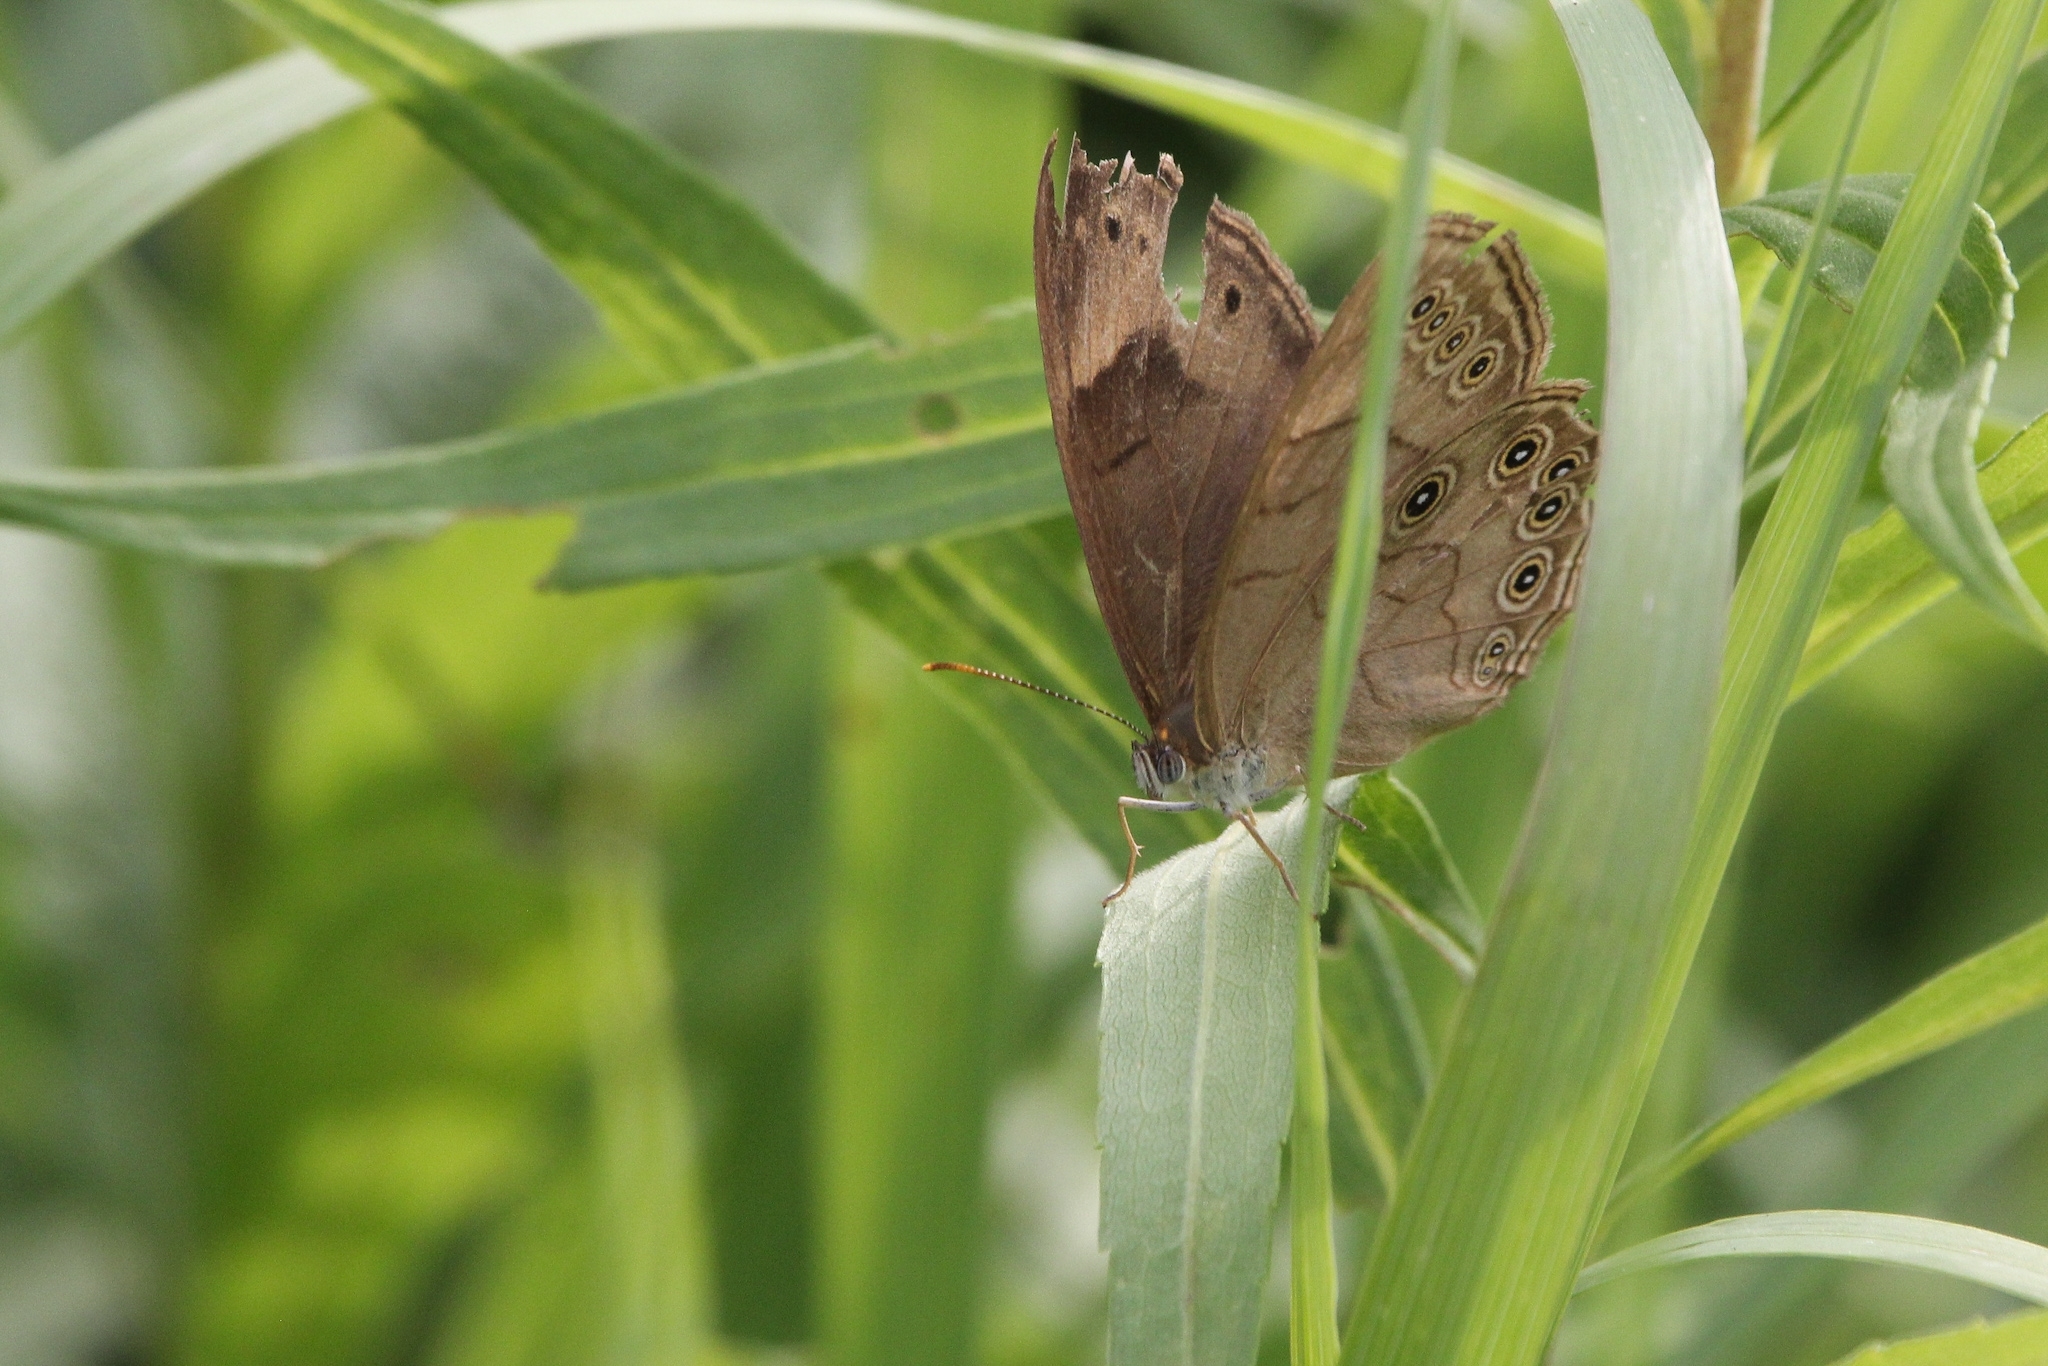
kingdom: Animalia
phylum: Arthropoda
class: Insecta
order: Lepidoptera
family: Nymphalidae
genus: Lethe
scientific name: Lethe eurydice
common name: Eyed brown
